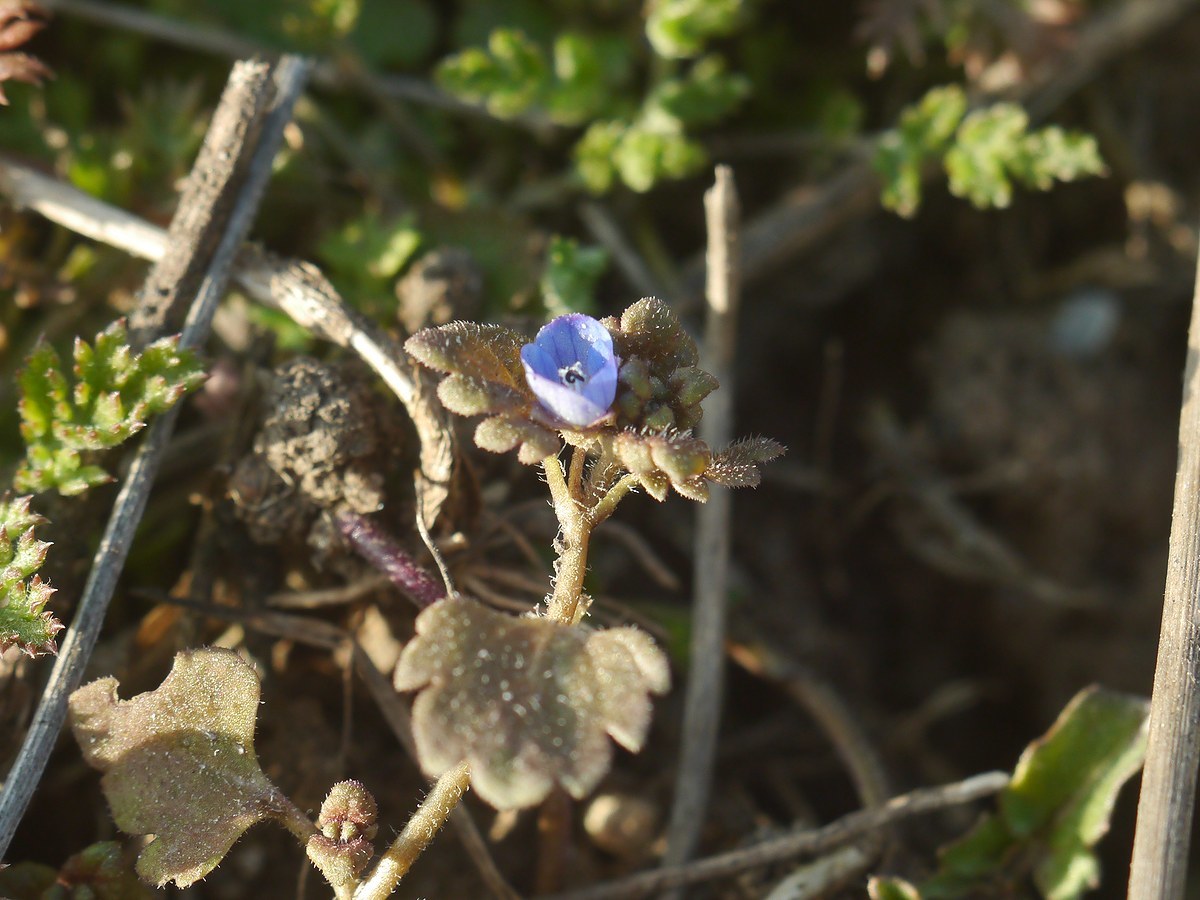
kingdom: Plantae
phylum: Tracheophyta
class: Magnoliopsida
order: Lamiales
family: Plantaginaceae
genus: Veronica
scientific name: Veronica persica
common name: Common field-speedwell
